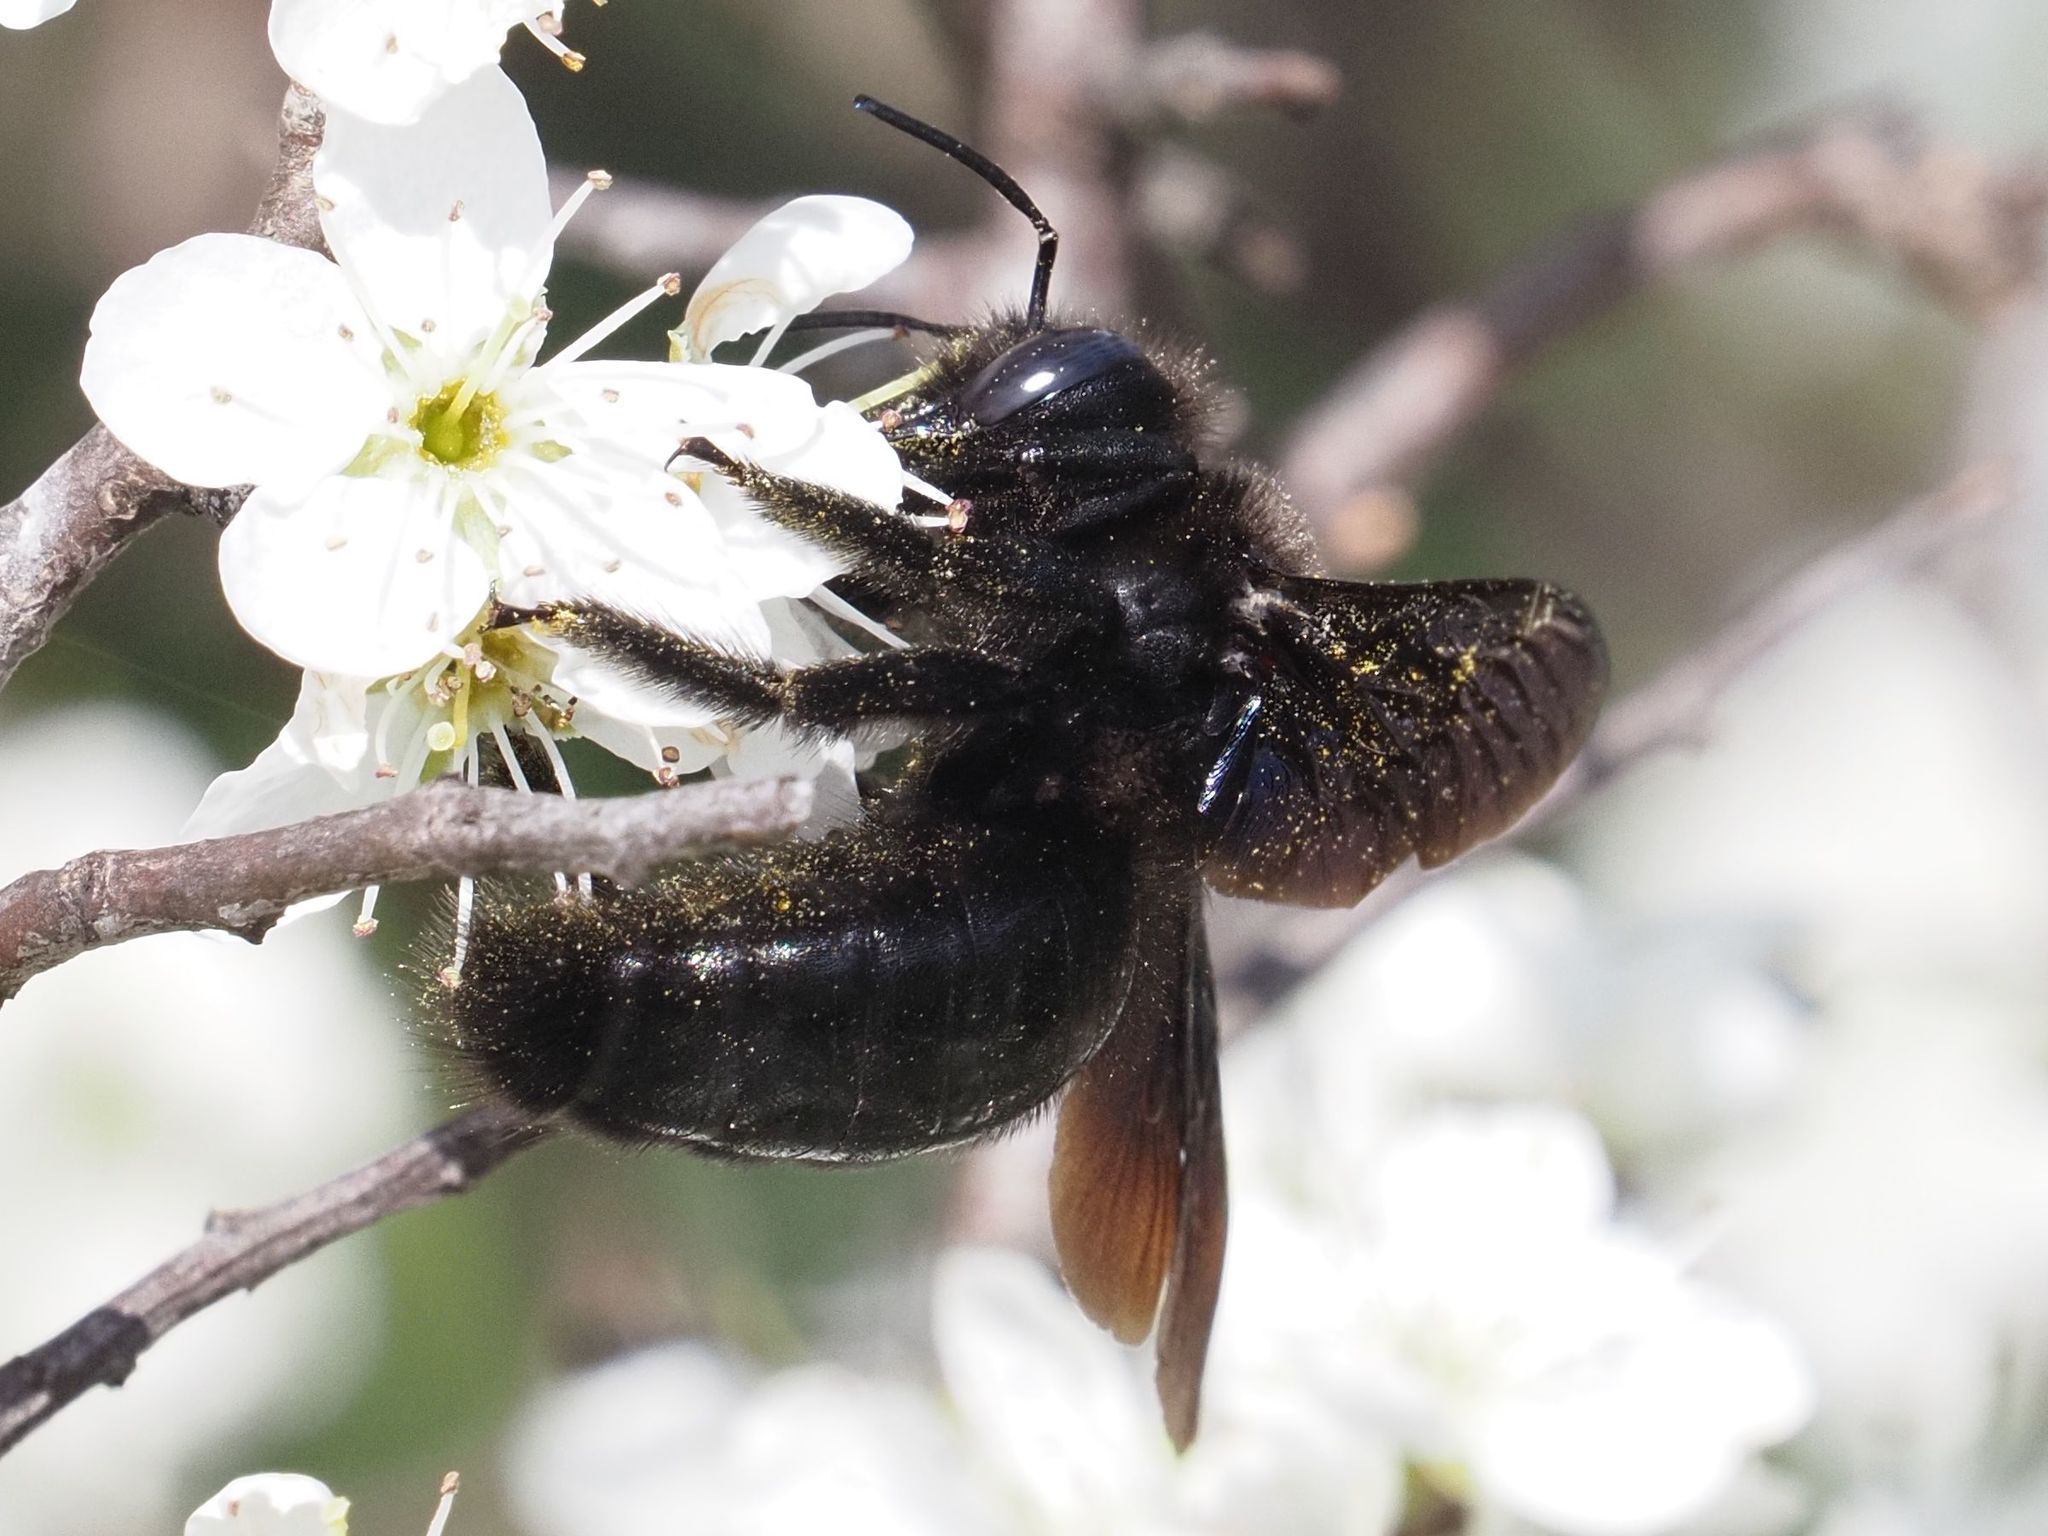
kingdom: Animalia
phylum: Arthropoda
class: Insecta
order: Hymenoptera
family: Apidae
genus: Xylocopa
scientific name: Xylocopa violacea
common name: Violet carpenter bee
